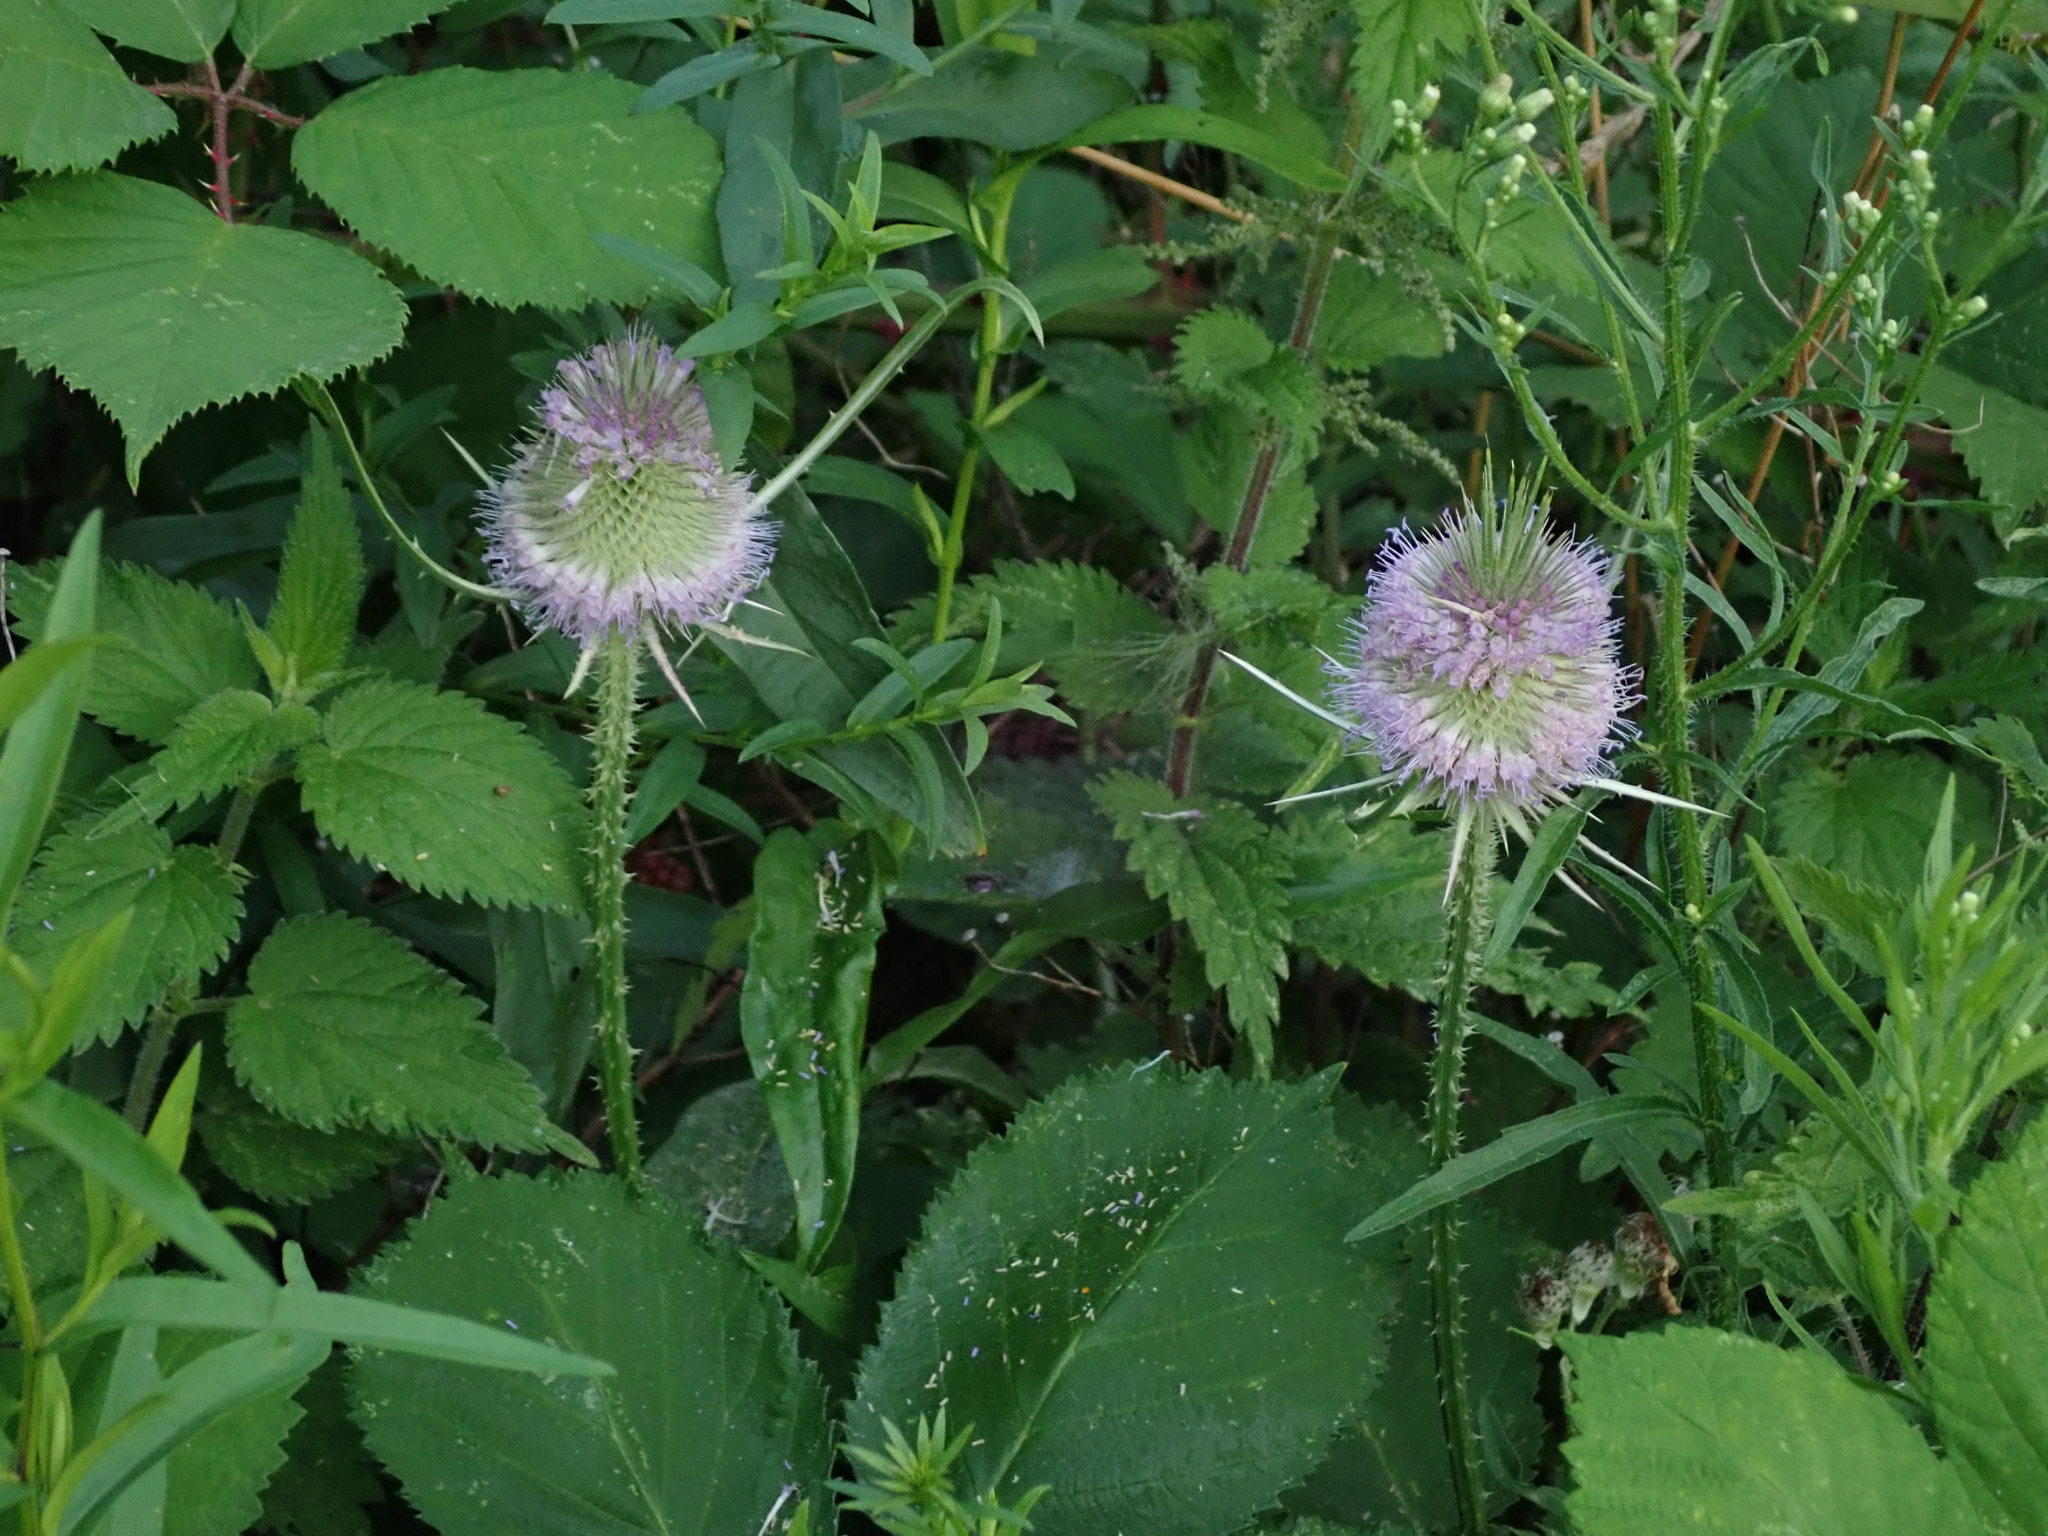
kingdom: Plantae
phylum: Tracheophyta
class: Magnoliopsida
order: Dipsacales
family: Caprifoliaceae
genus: Dipsacus
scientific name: Dipsacus fullonum
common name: Teasel
